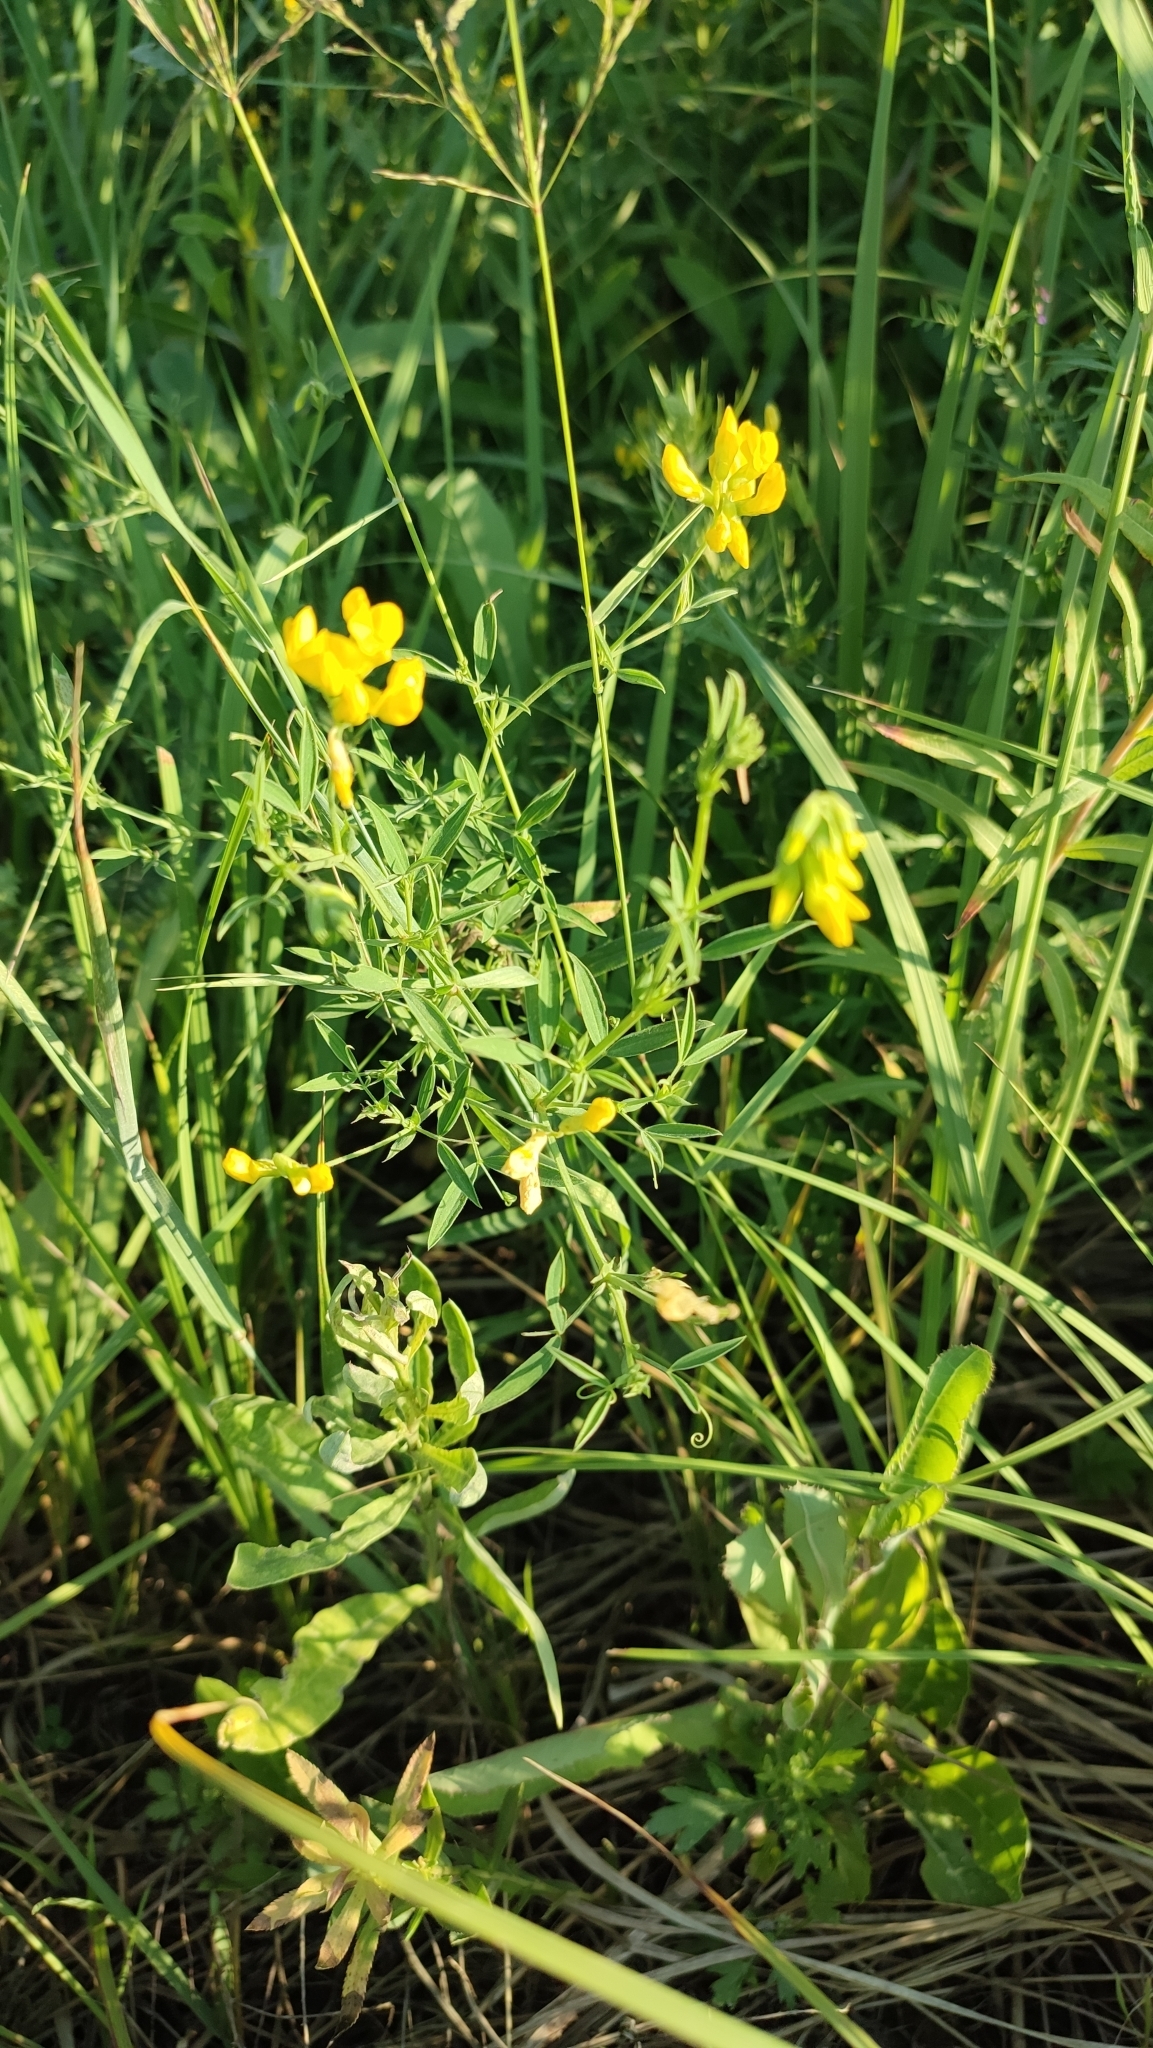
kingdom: Plantae
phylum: Tracheophyta
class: Magnoliopsida
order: Fabales
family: Fabaceae
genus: Lathyrus
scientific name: Lathyrus pratensis
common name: Meadow vetchling
